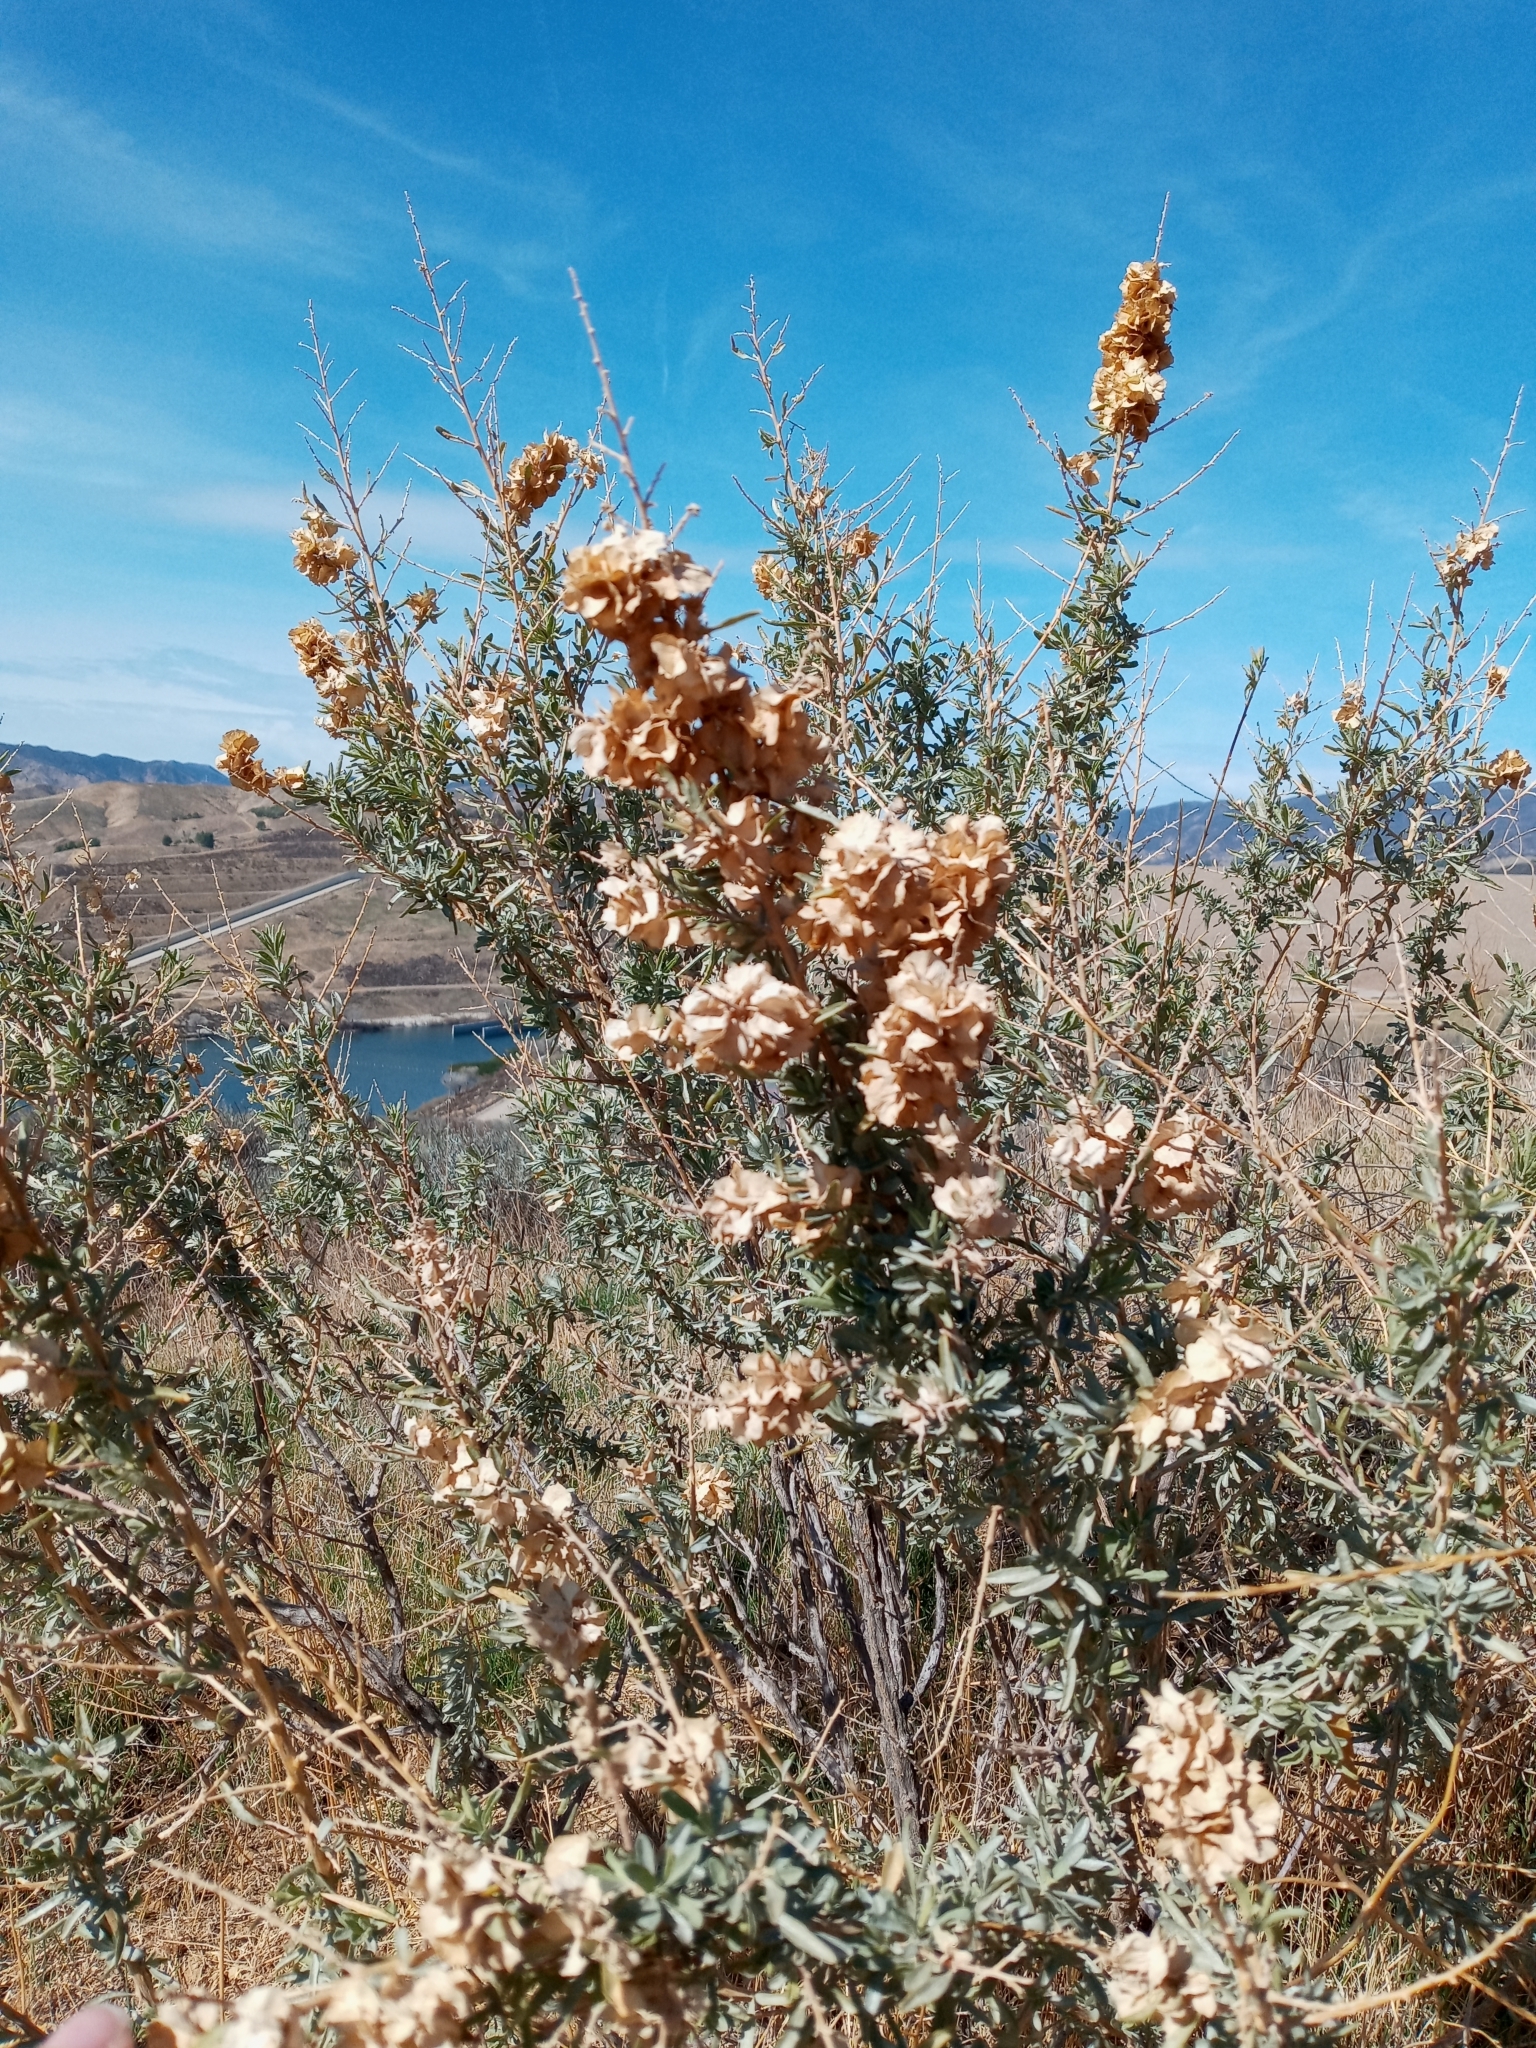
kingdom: Plantae
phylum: Tracheophyta
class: Magnoliopsida
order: Caryophyllales
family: Amaranthaceae
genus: Atriplex
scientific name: Atriplex canescens
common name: Four-wing saltbush
